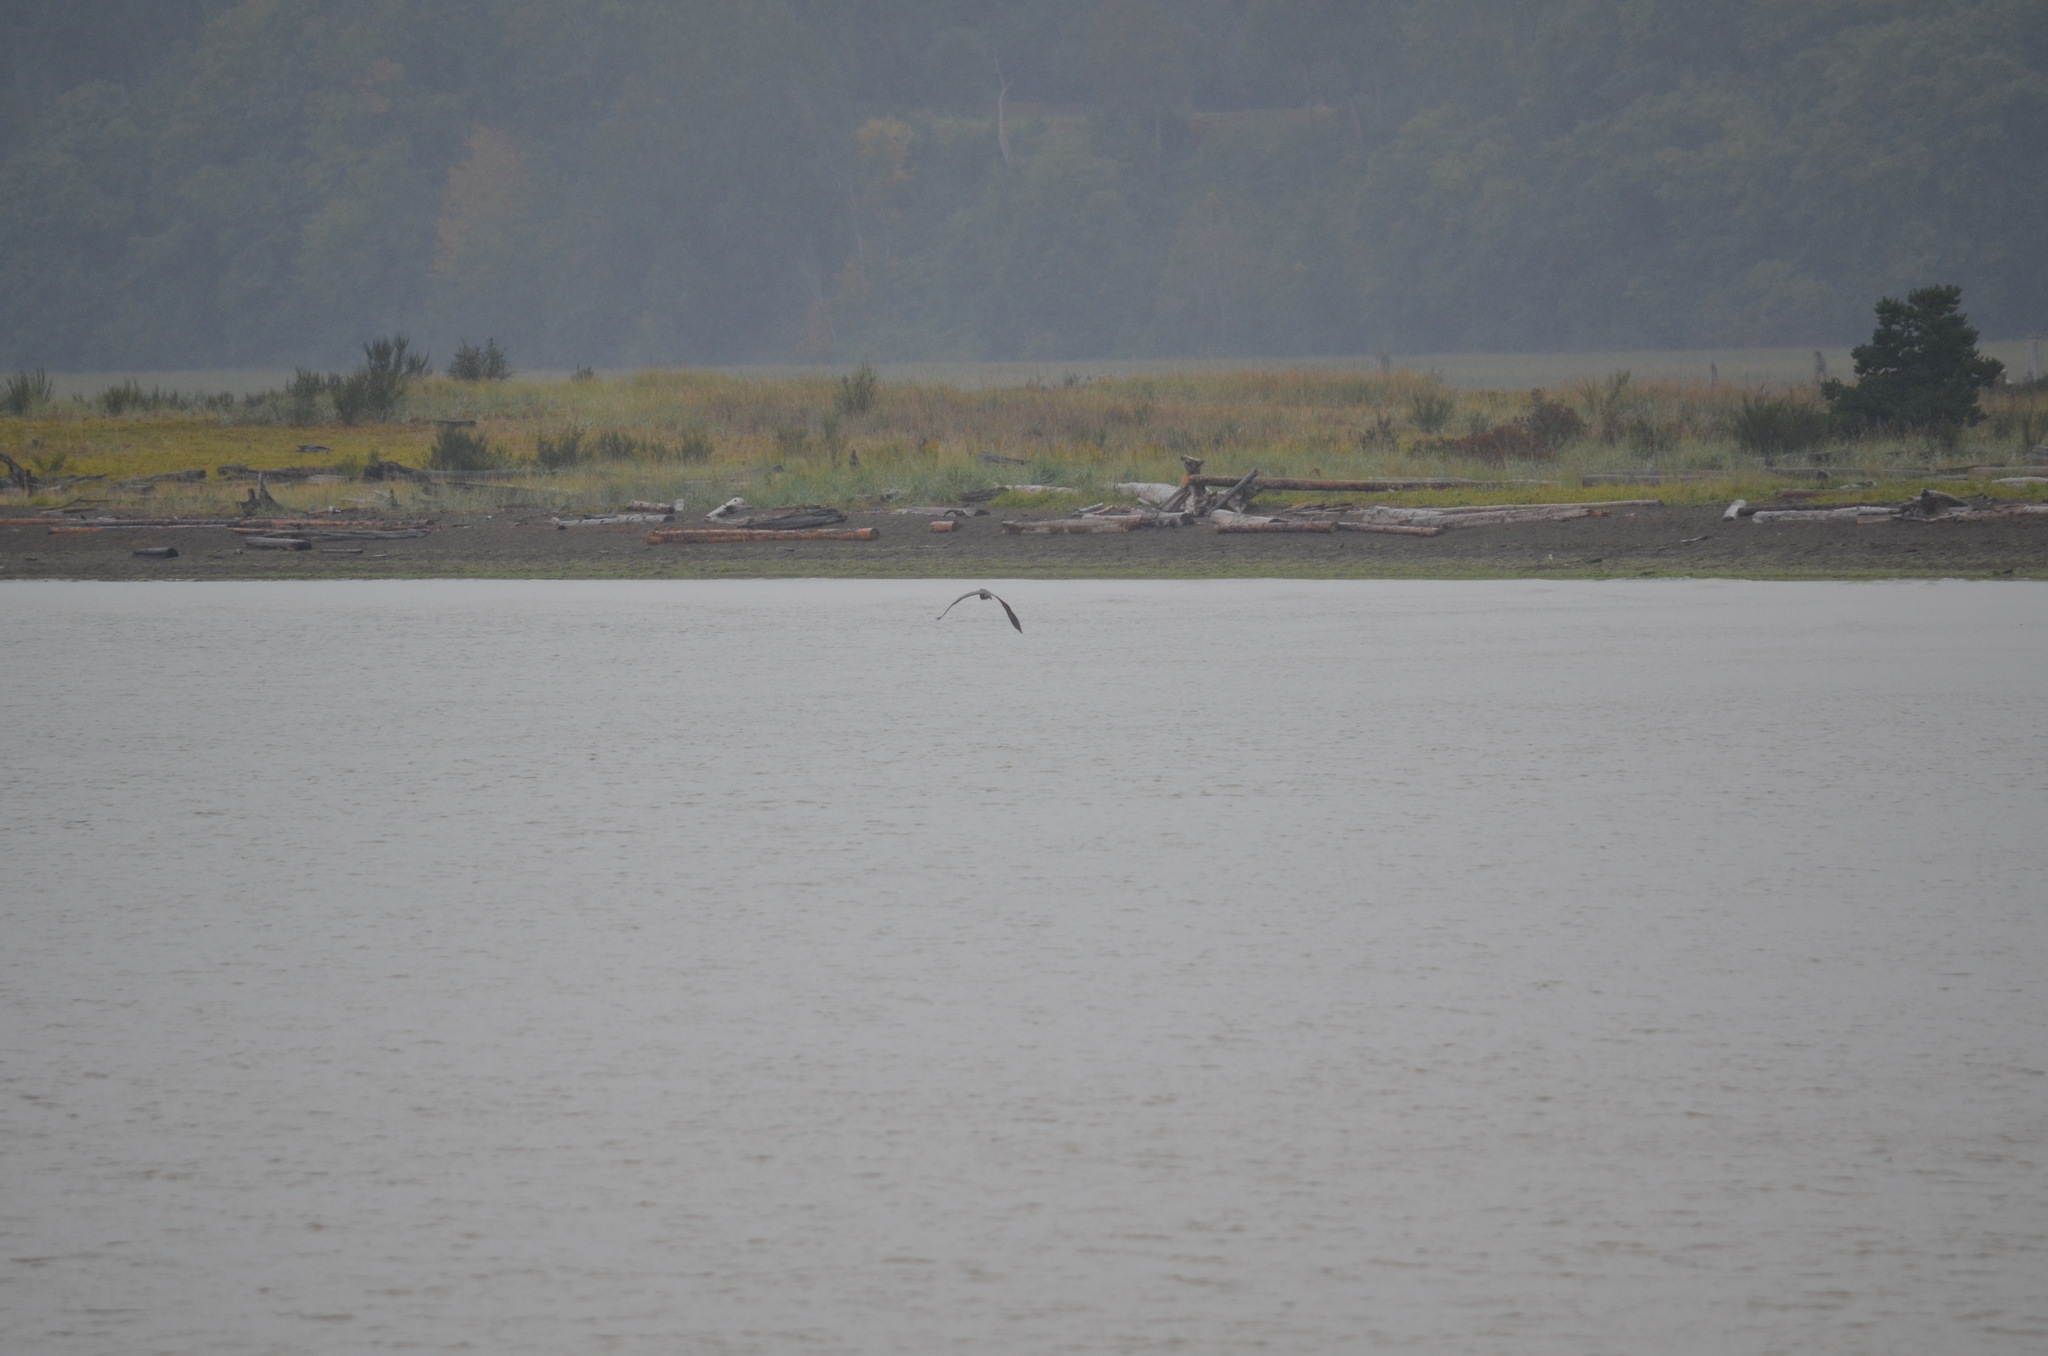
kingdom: Animalia
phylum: Chordata
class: Aves
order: Pelecaniformes
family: Ardeidae
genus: Ardea
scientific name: Ardea herodias
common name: Great blue heron
